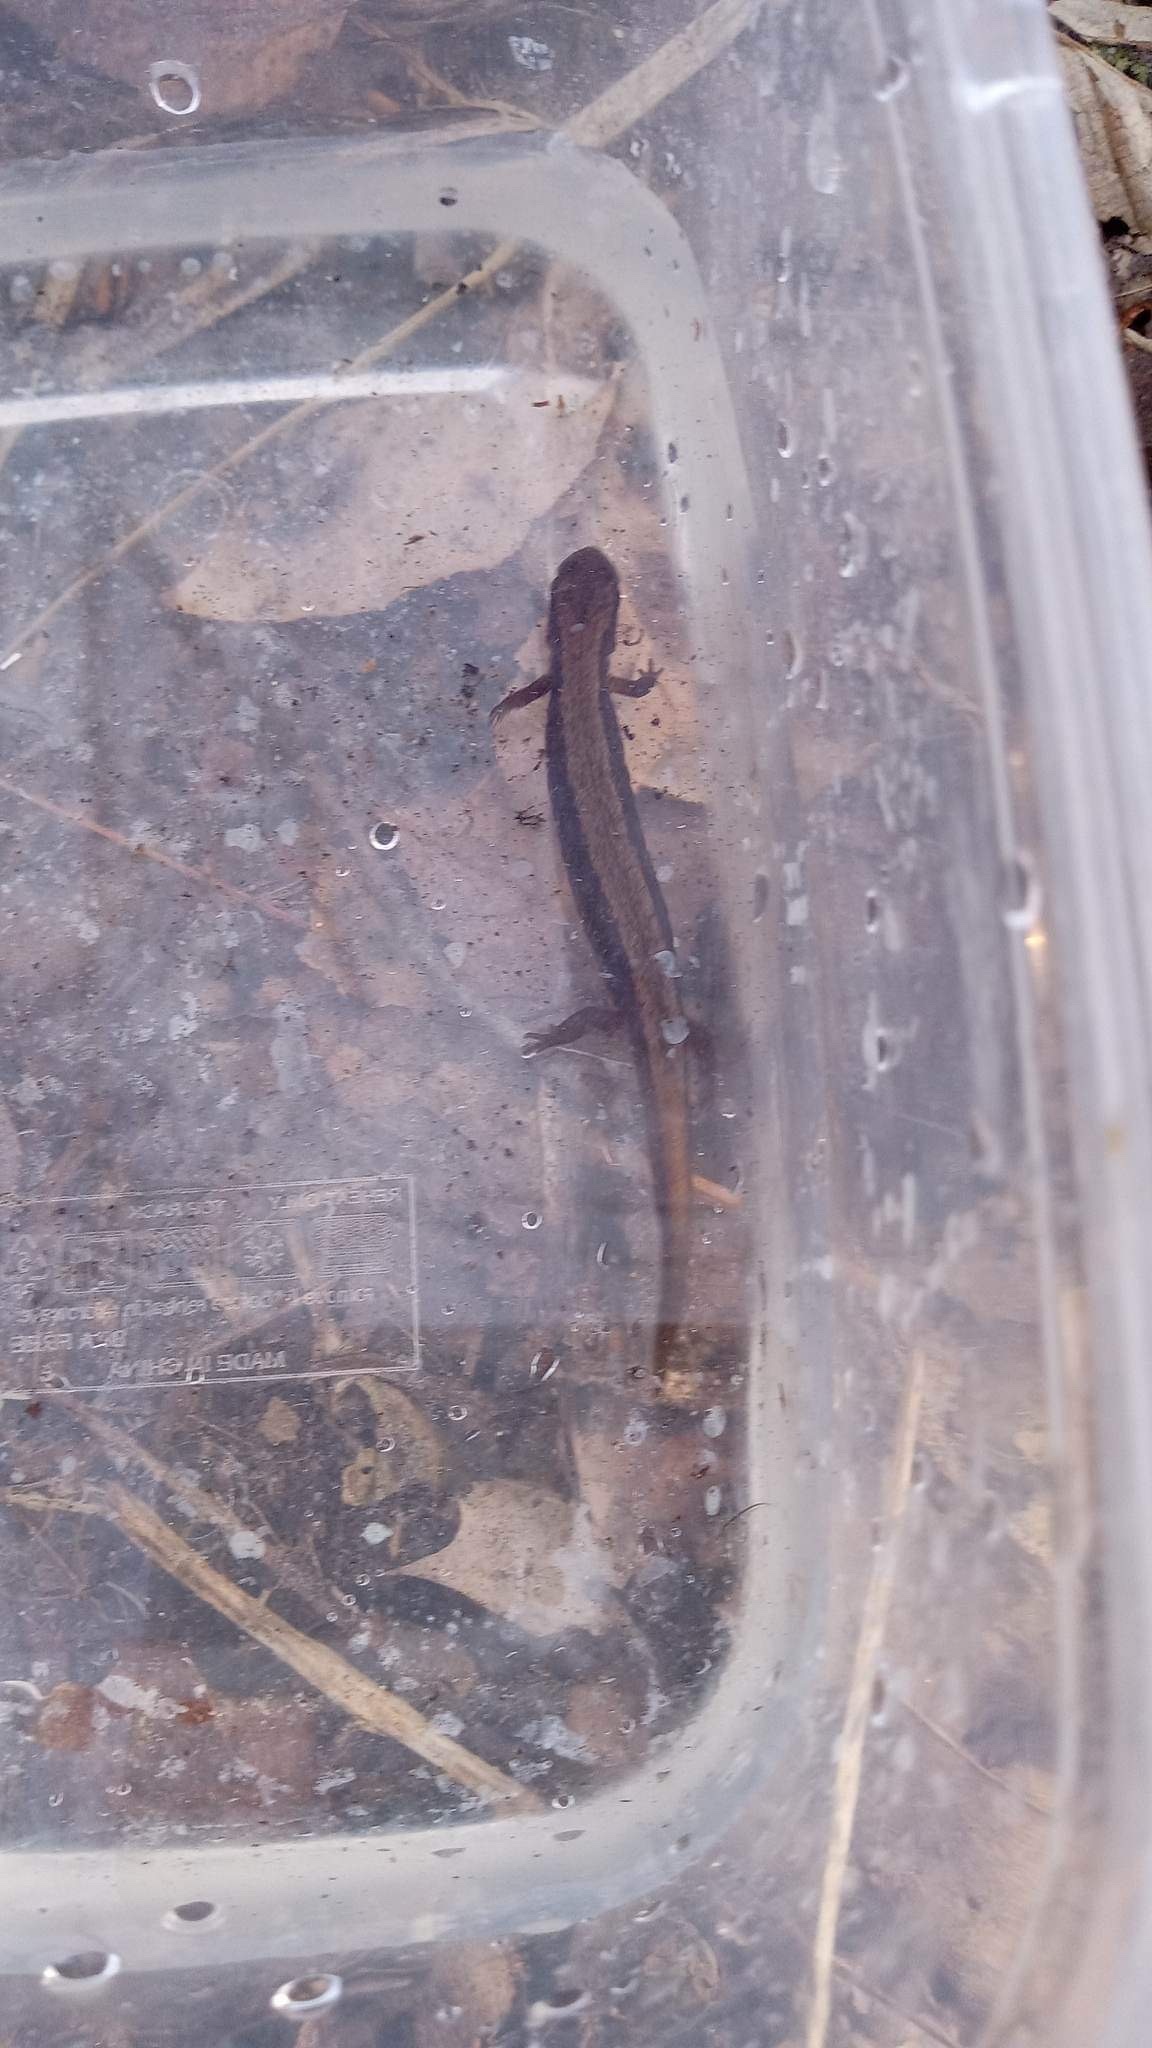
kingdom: Animalia
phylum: Chordata
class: Amphibia
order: Caudata
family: Plethodontidae
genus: Eurycea
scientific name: Eurycea bislineata
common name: Northern two-lined salamander
